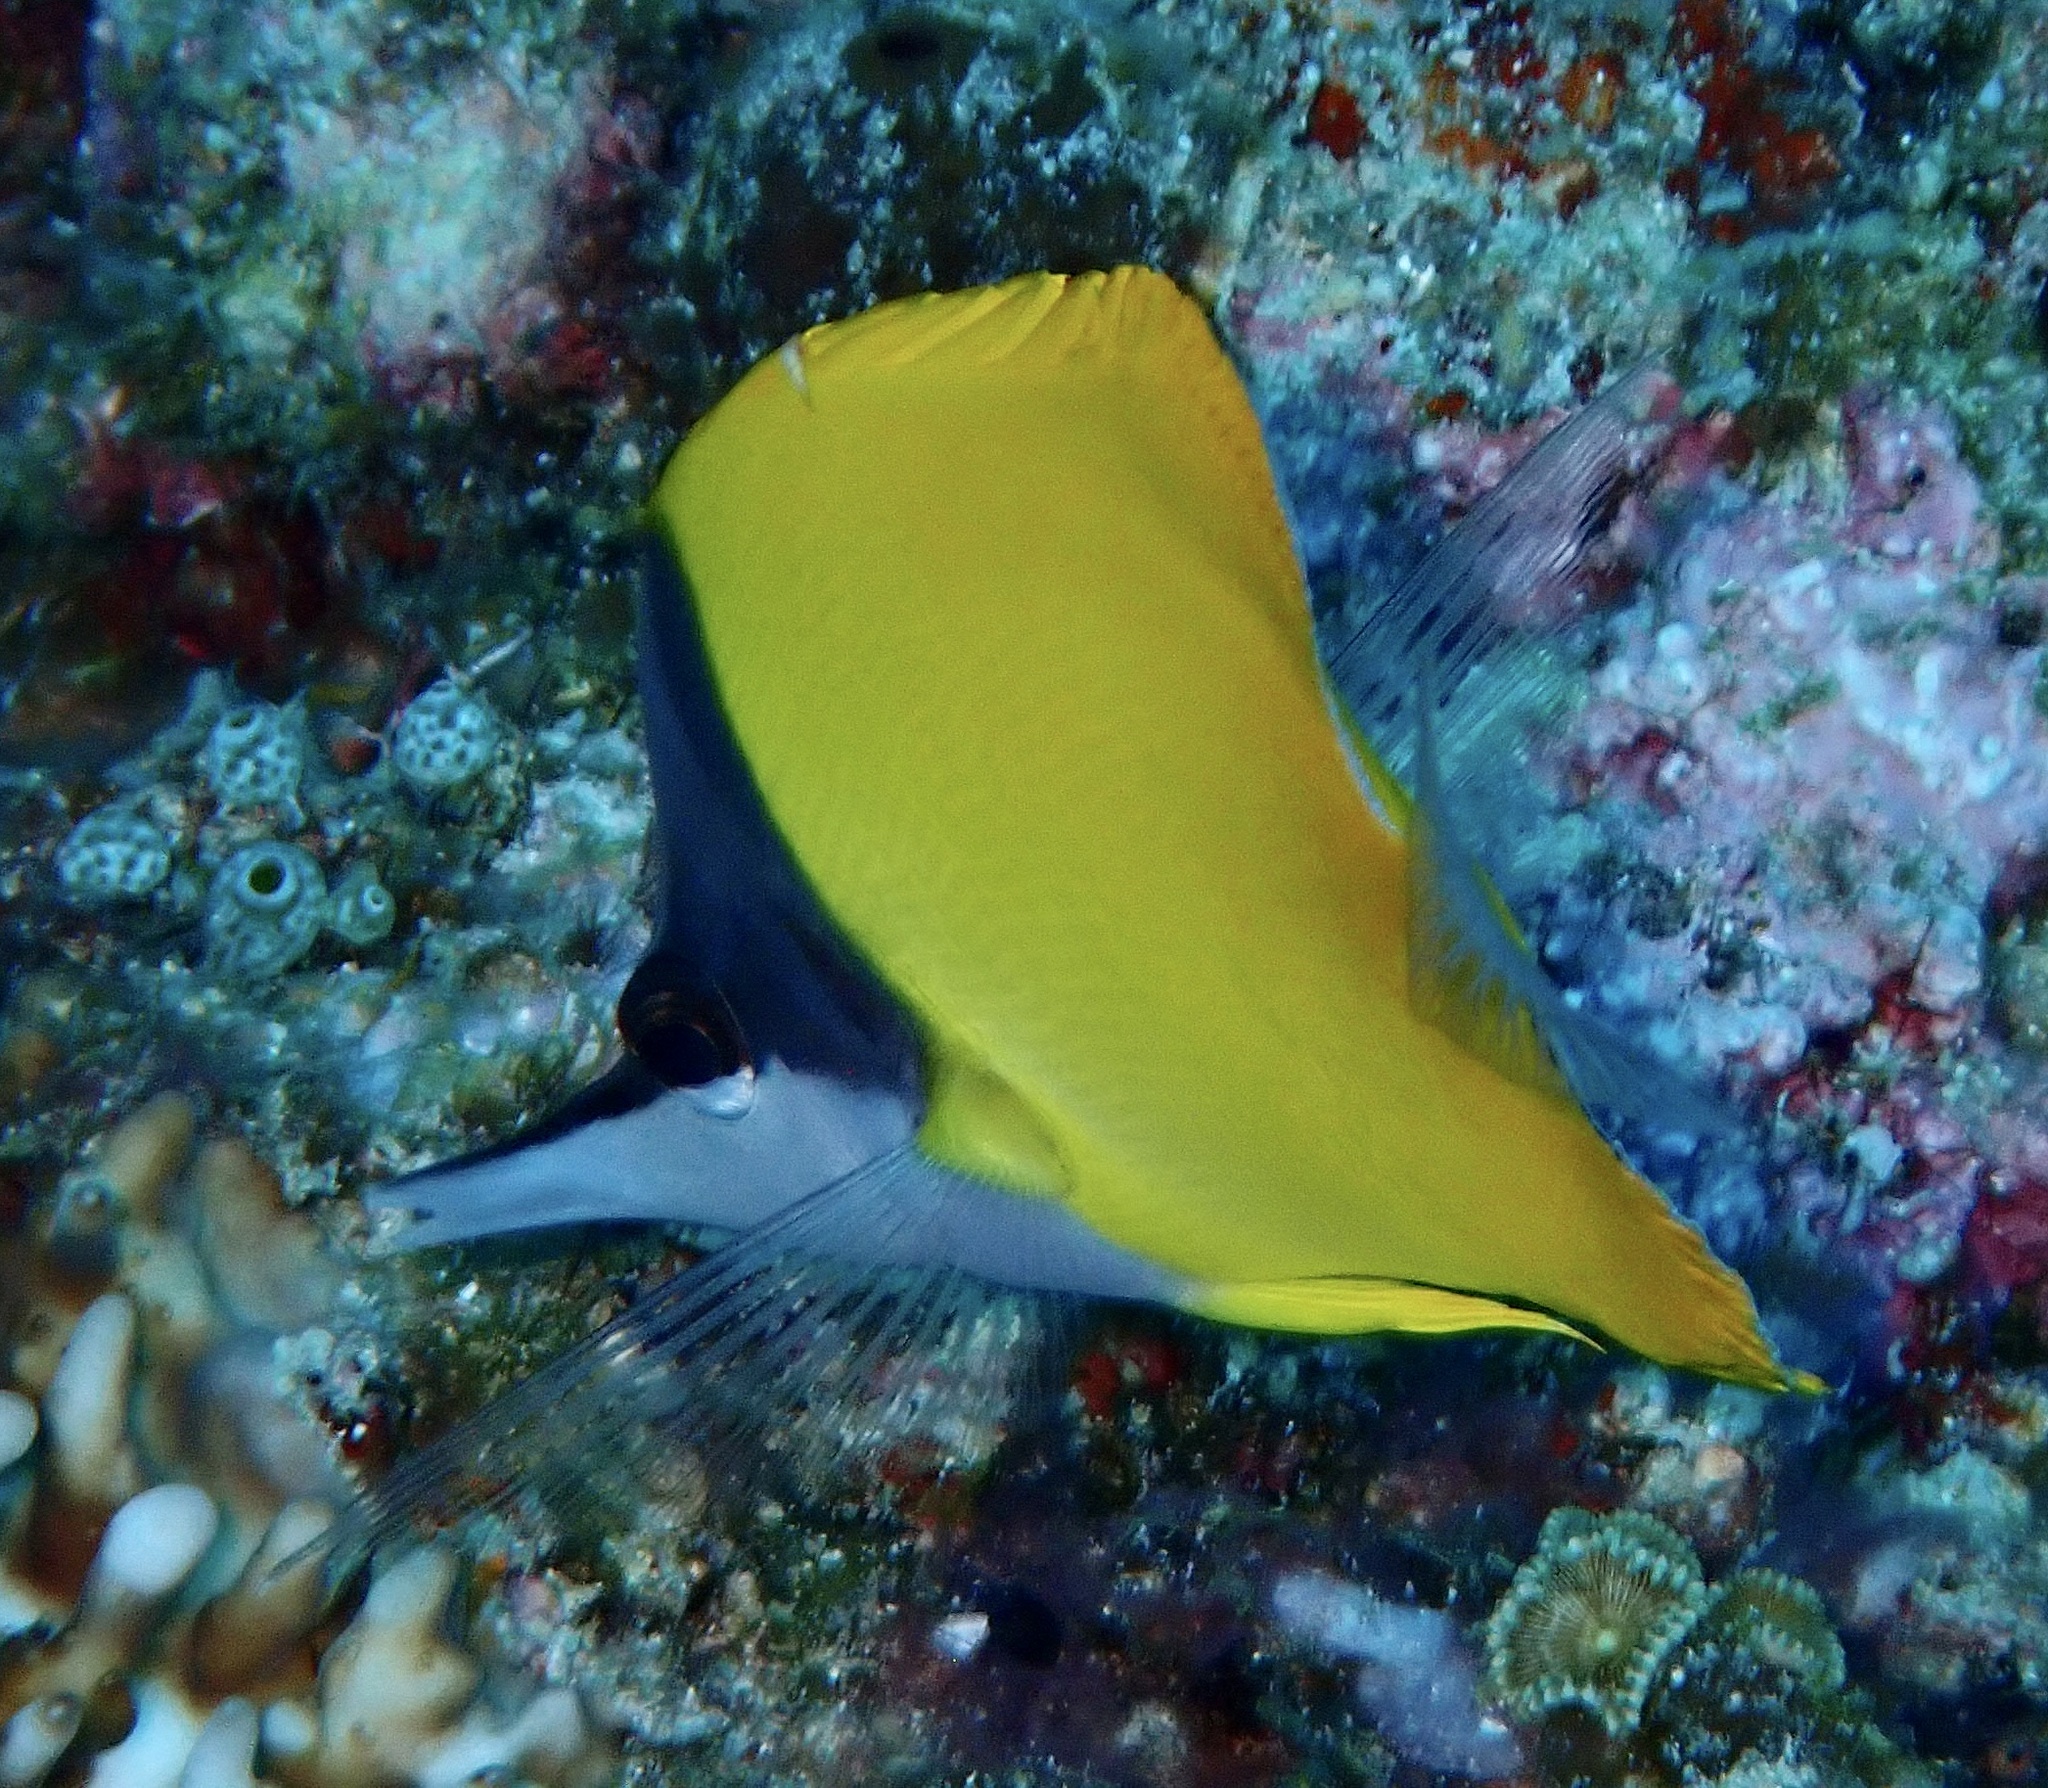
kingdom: Animalia
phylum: Chordata
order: Perciformes
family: Chaetodontidae
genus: Forcipiger
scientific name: Forcipiger flavissimus
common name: Forcepsfish
